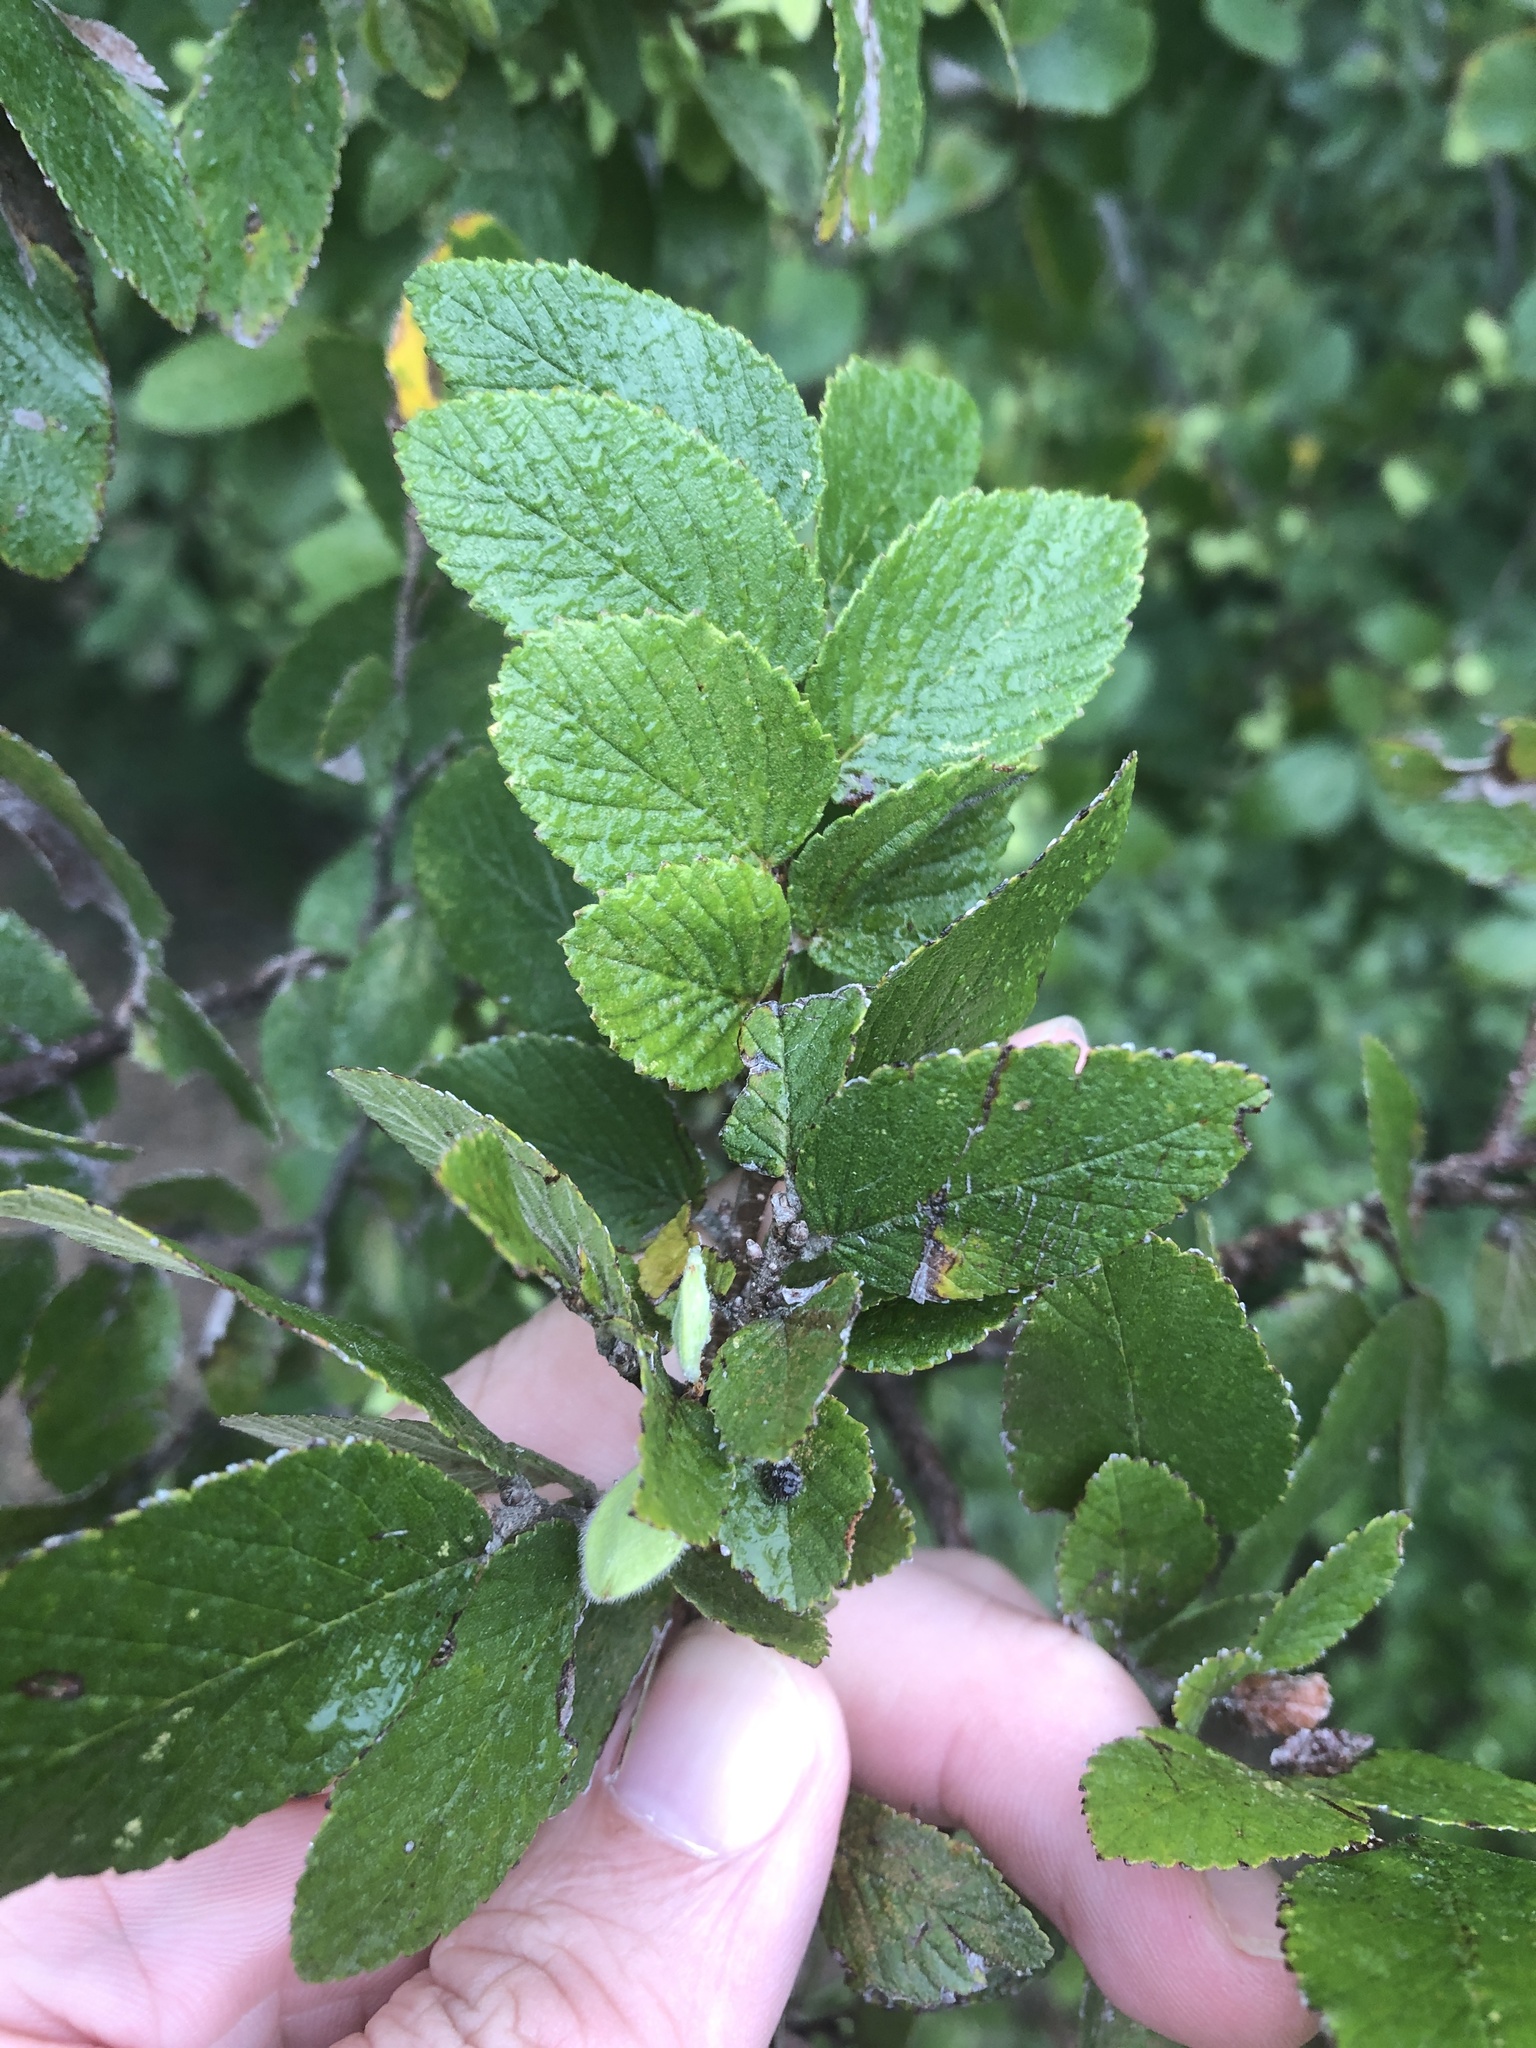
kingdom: Plantae
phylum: Tracheophyta
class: Magnoliopsida
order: Rosales
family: Ulmaceae
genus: Ulmus
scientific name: Ulmus crassifolia
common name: Basket elm
